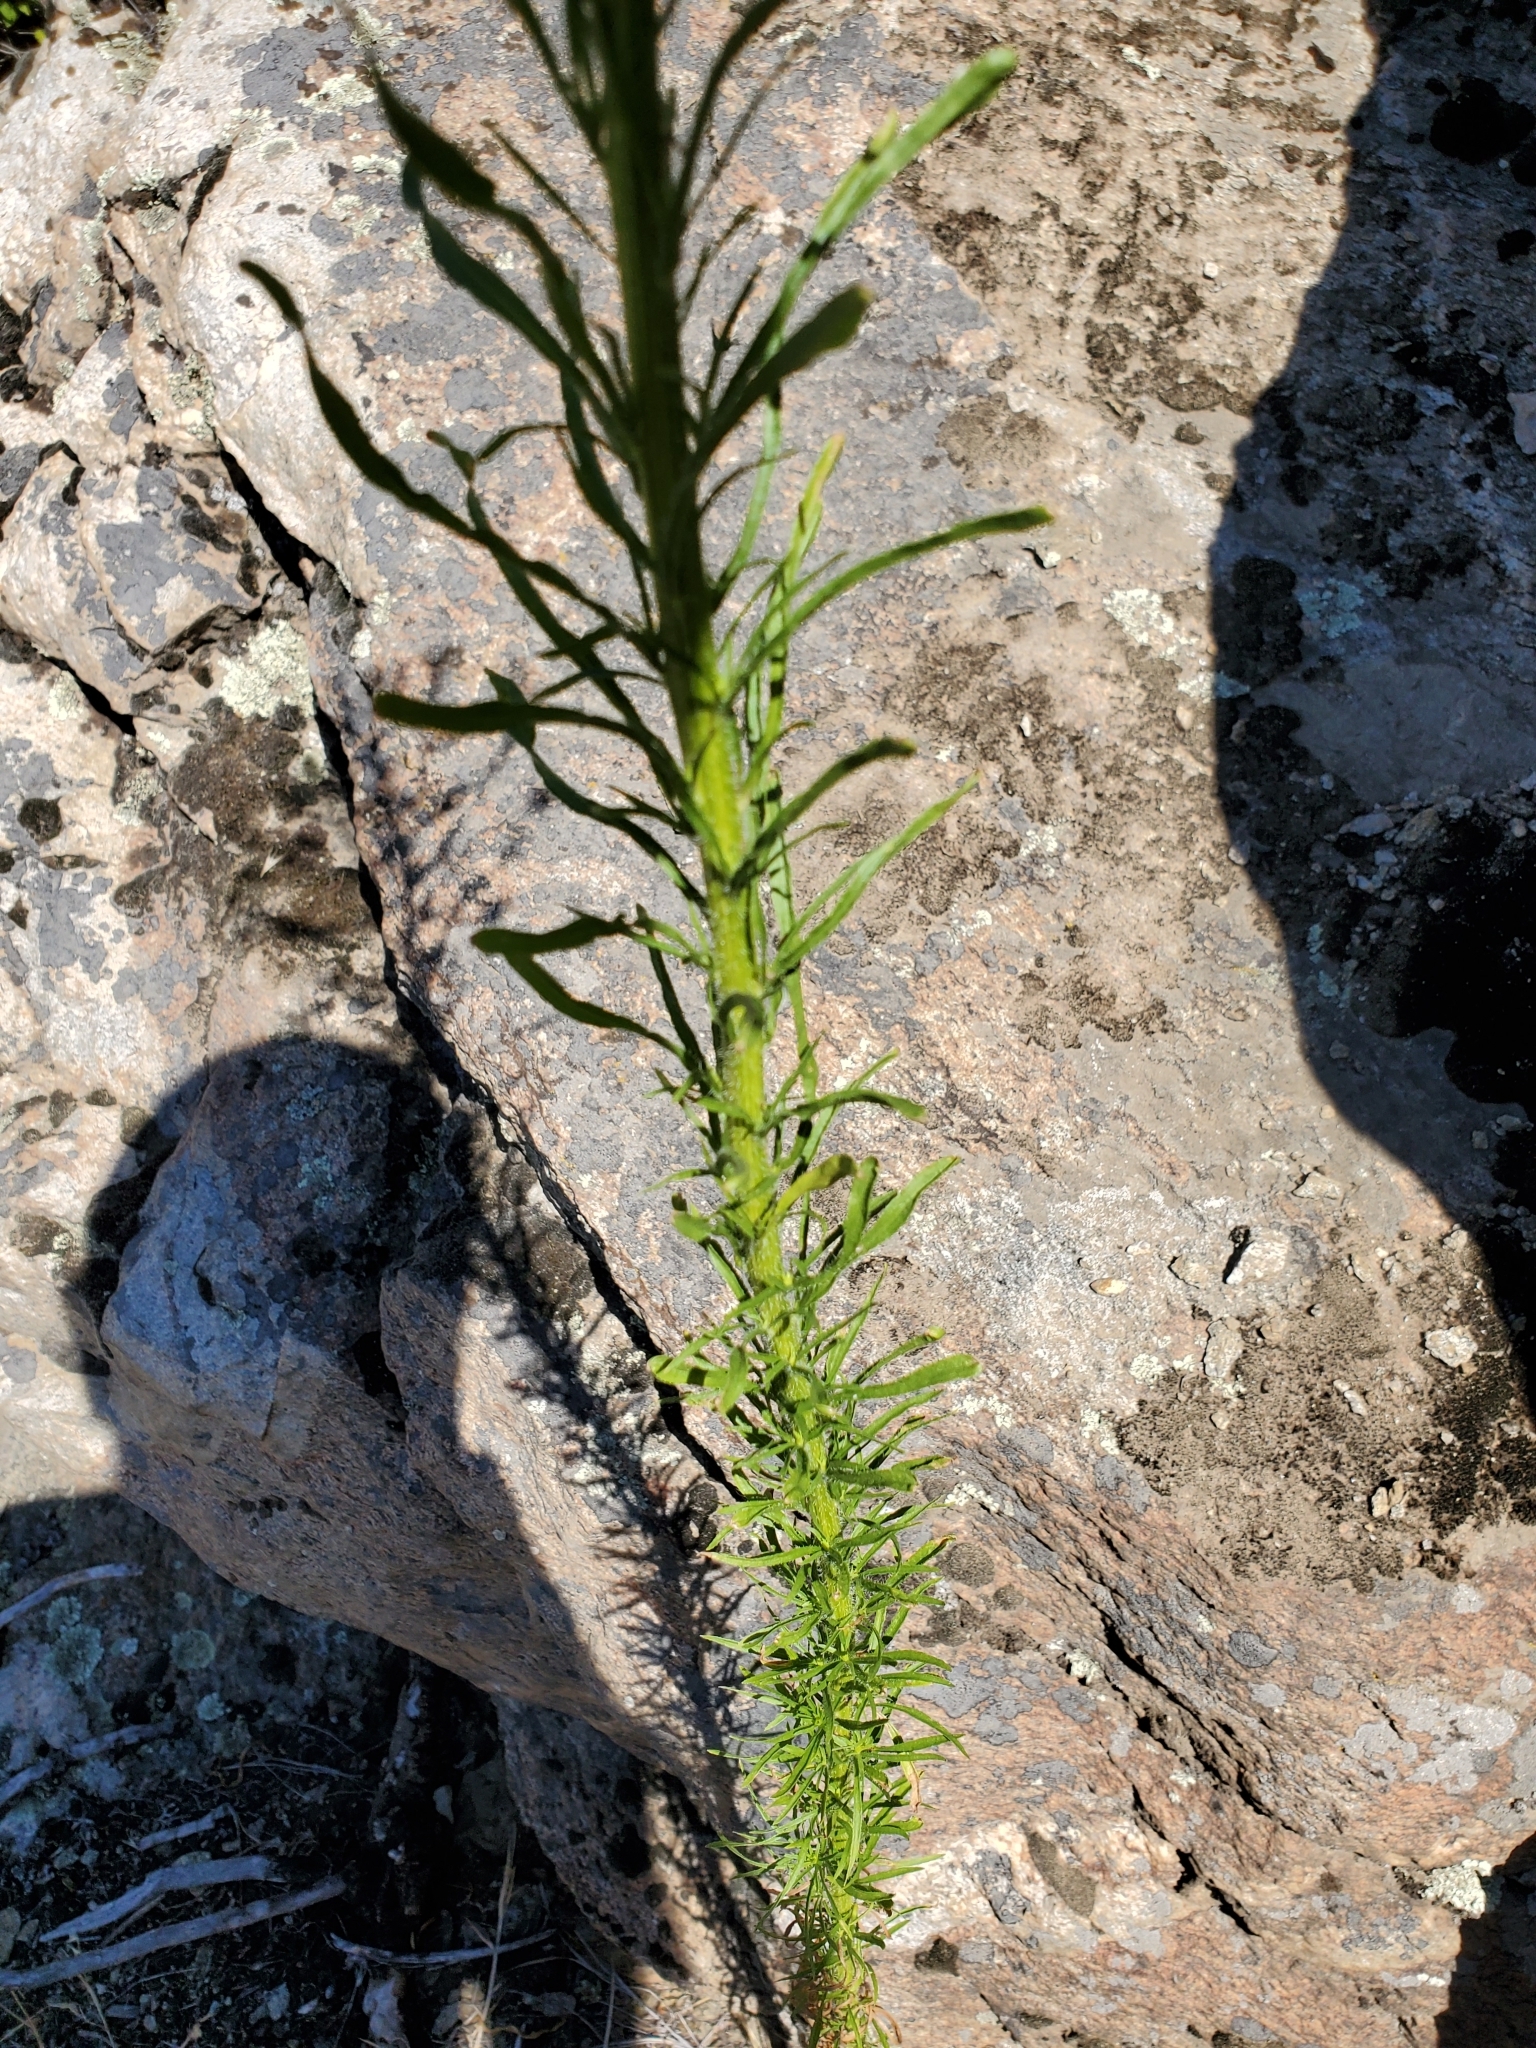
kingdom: Plantae
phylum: Tracheophyta
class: Magnoliopsida
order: Asterales
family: Asteraceae
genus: Erigeron
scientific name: Erigeron canadensis
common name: Canadian fleabane
